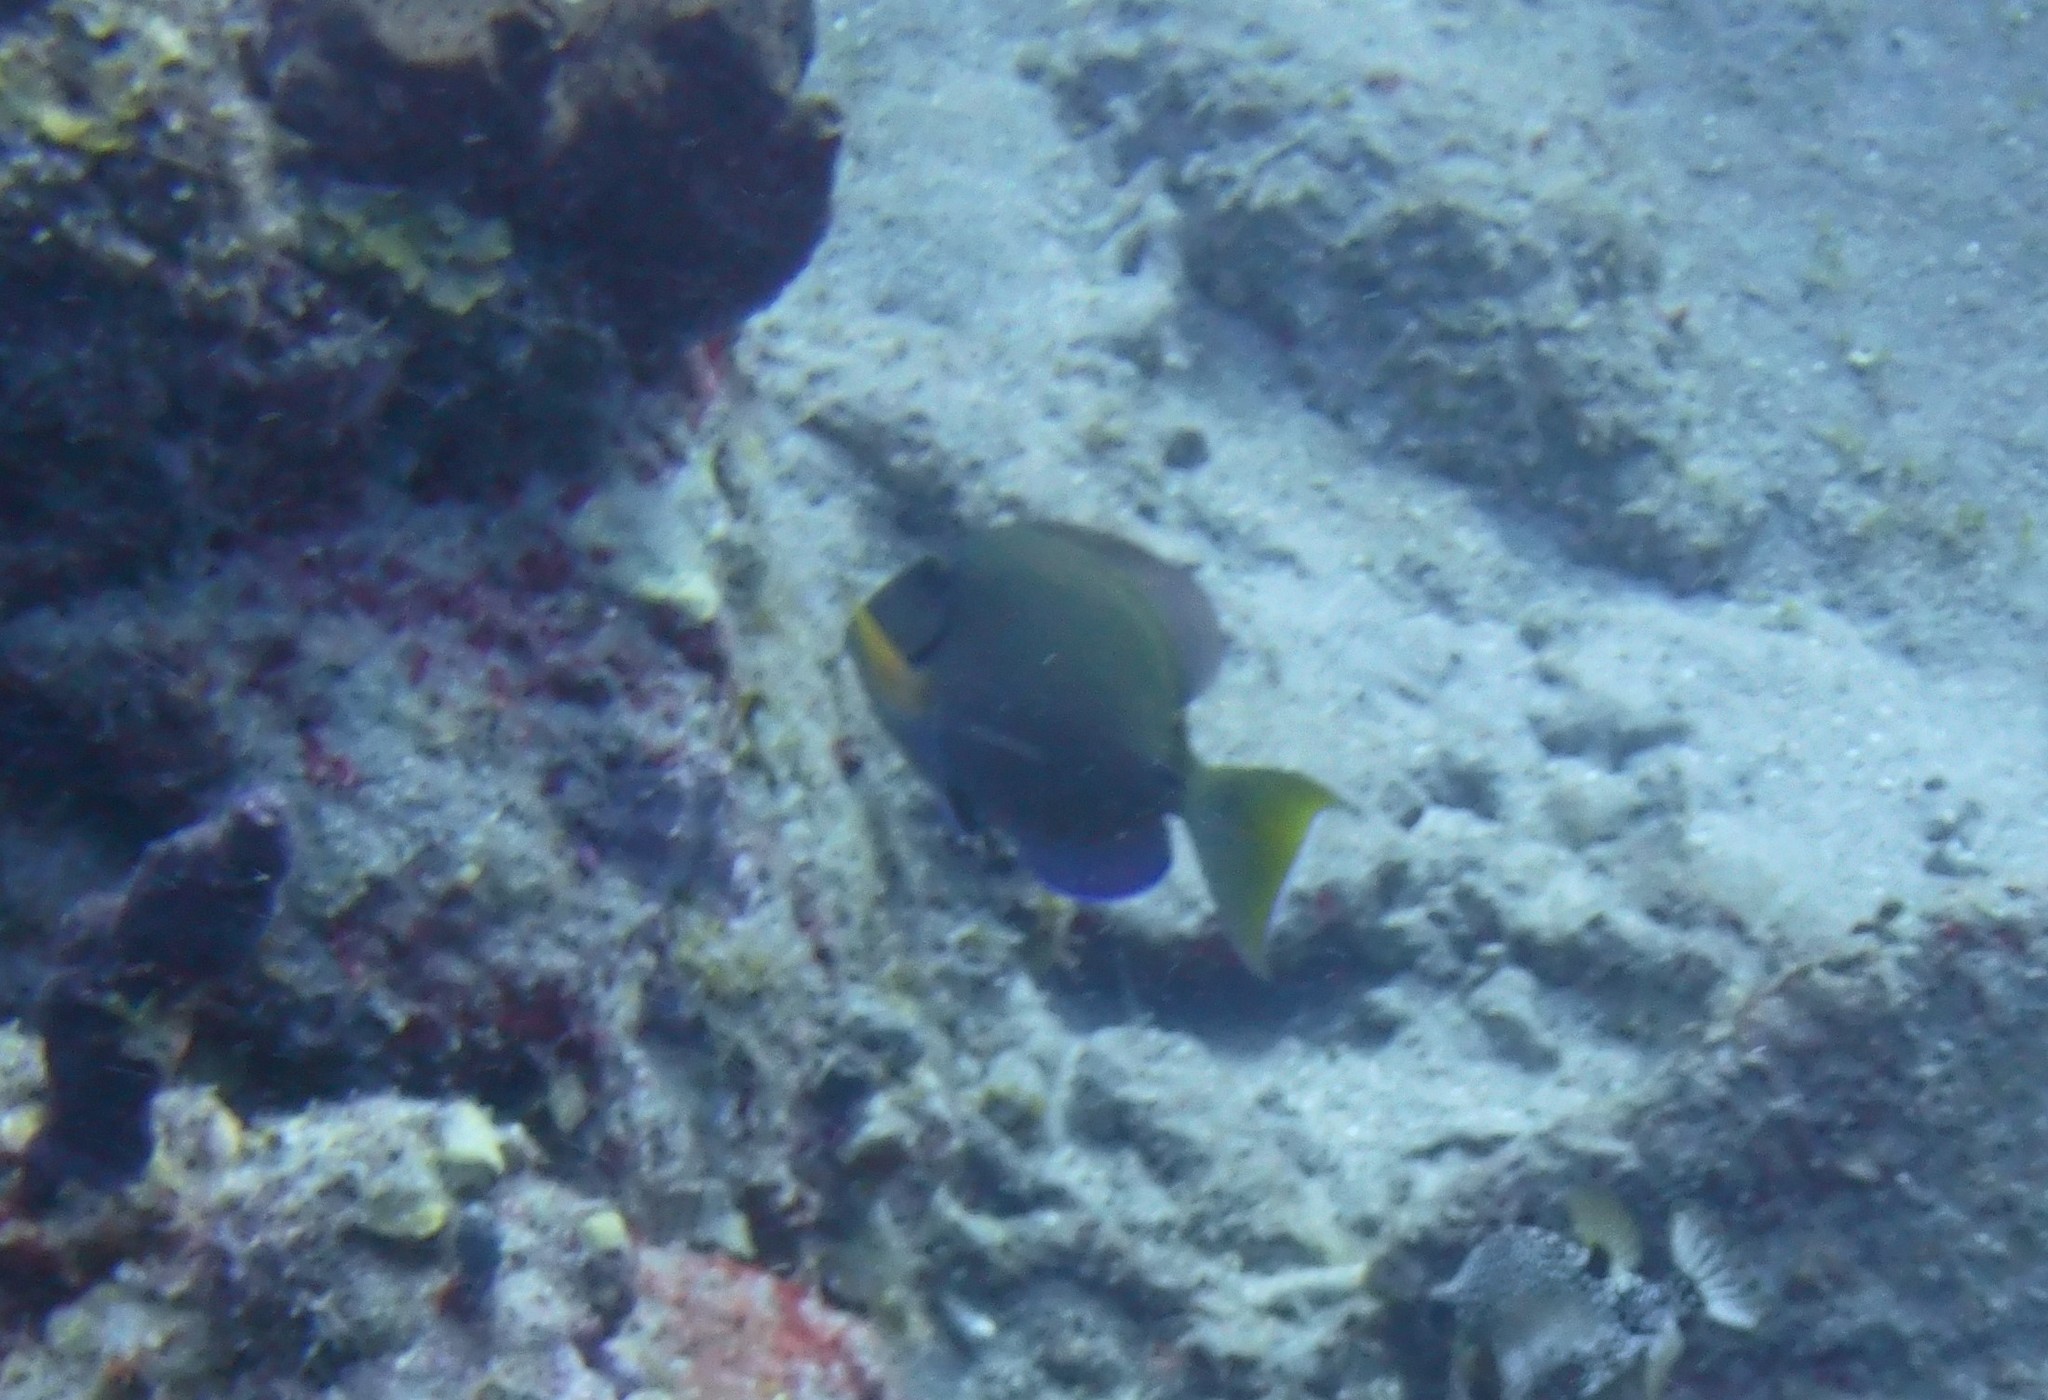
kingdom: Animalia
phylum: Chordata
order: Perciformes
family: Acanthuridae
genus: Acanthurus
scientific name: Acanthurus bahianus
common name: Ocean surgeon
